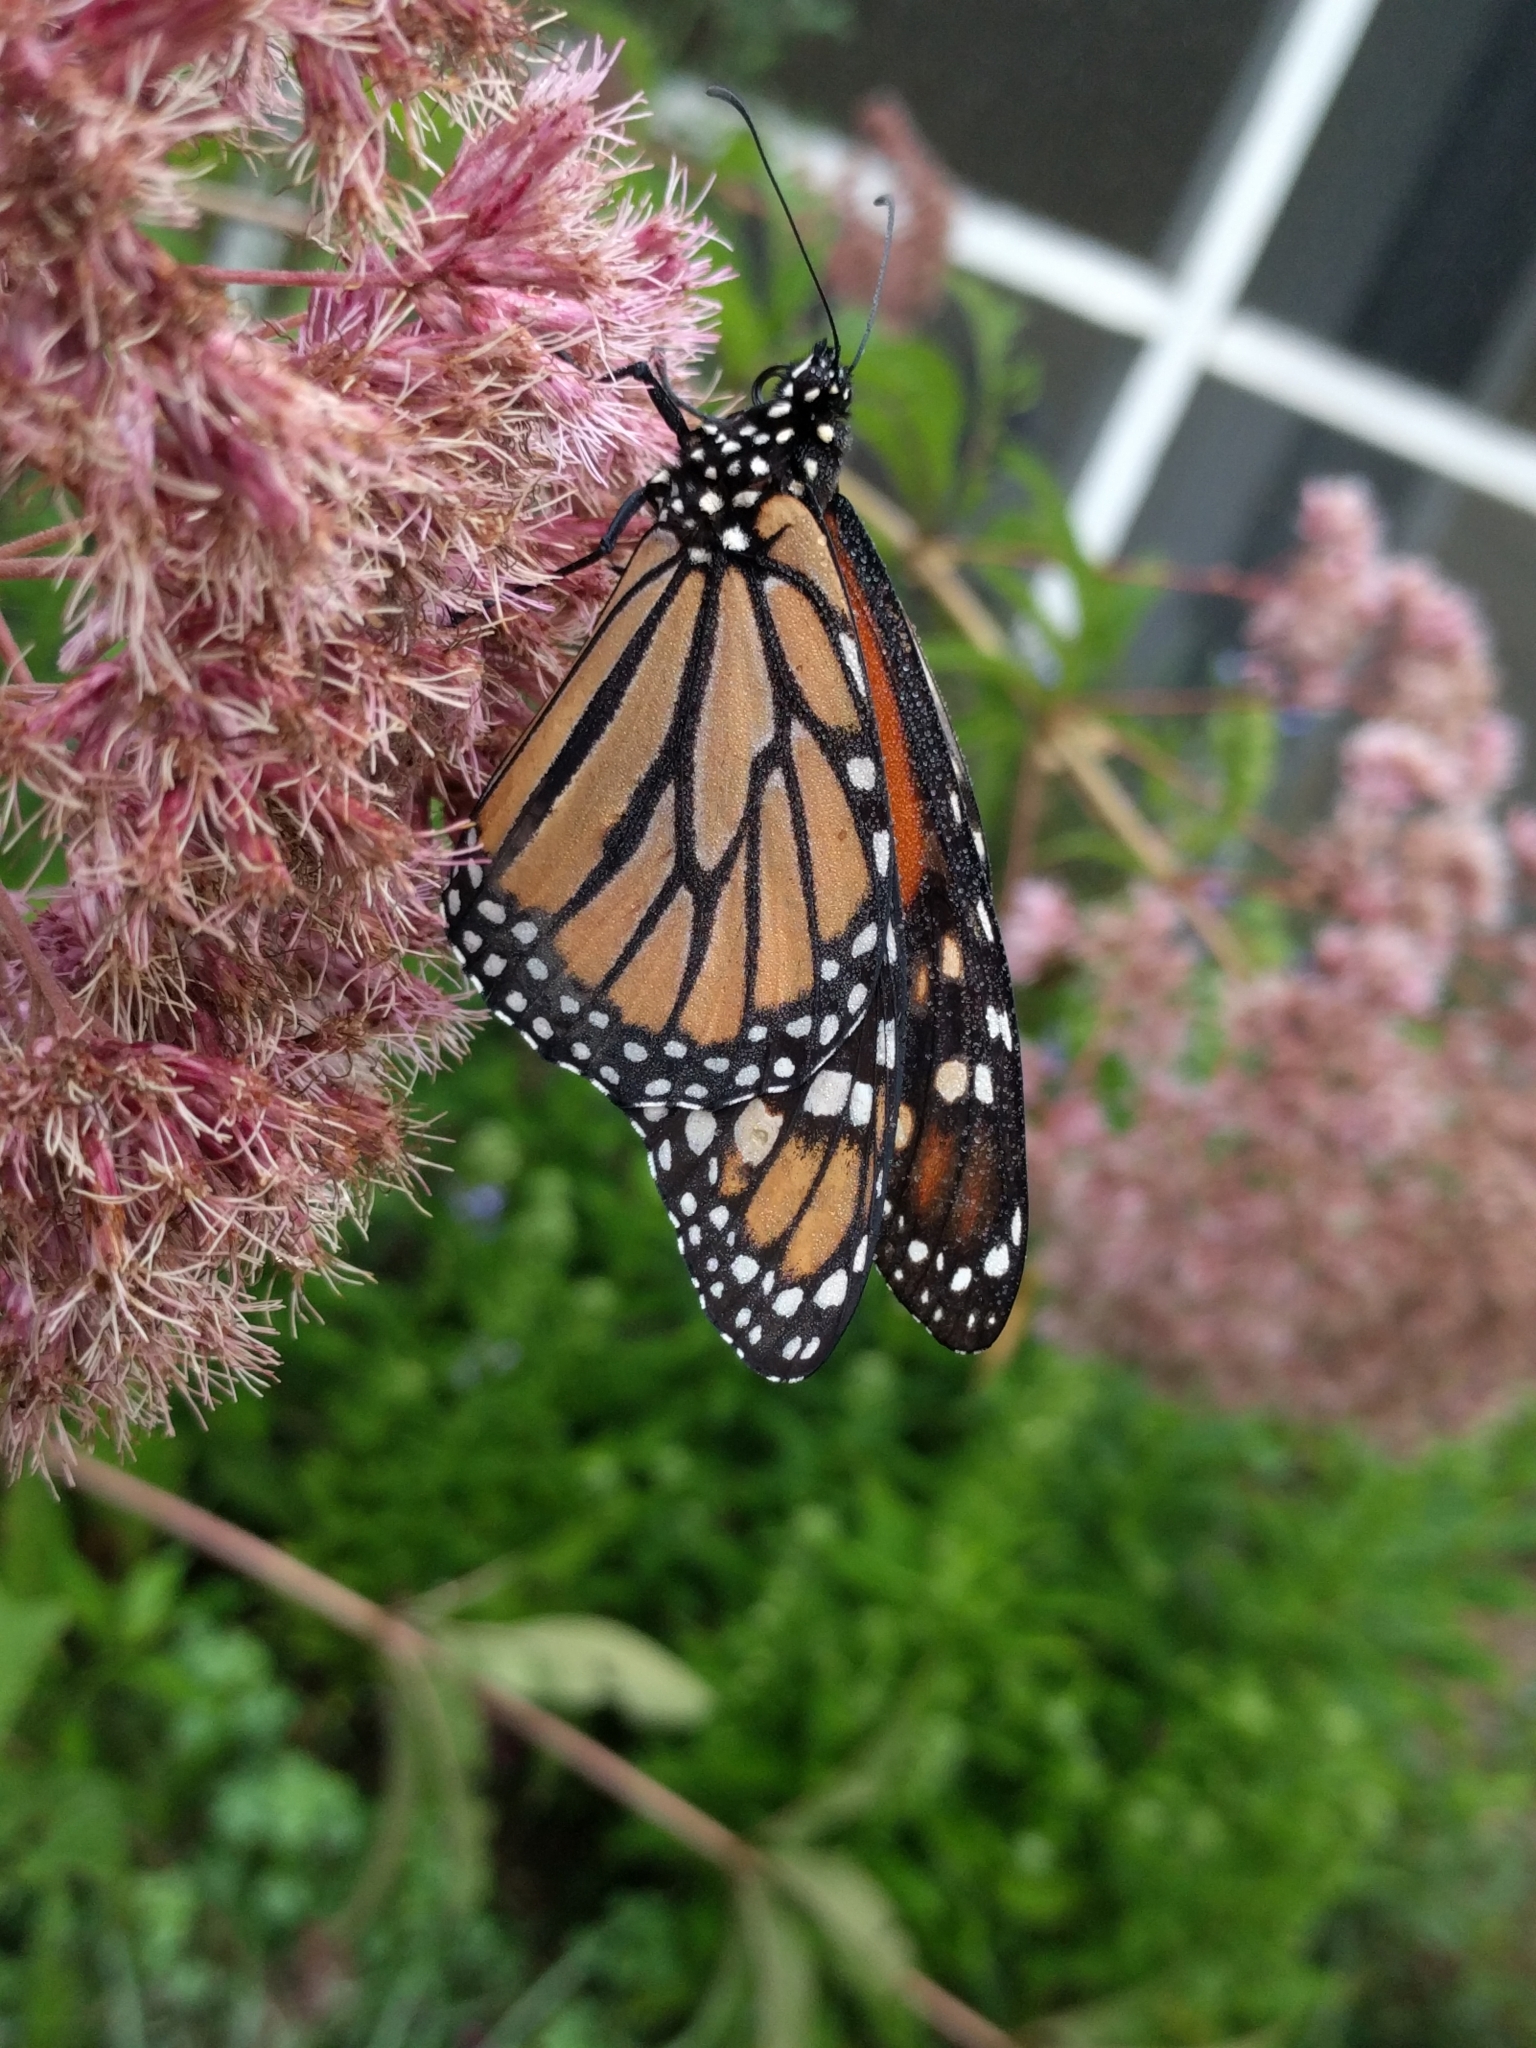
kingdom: Animalia
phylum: Arthropoda
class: Insecta
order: Lepidoptera
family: Nymphalidae
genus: Danaus
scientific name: Danaus plexippus
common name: Monarch
